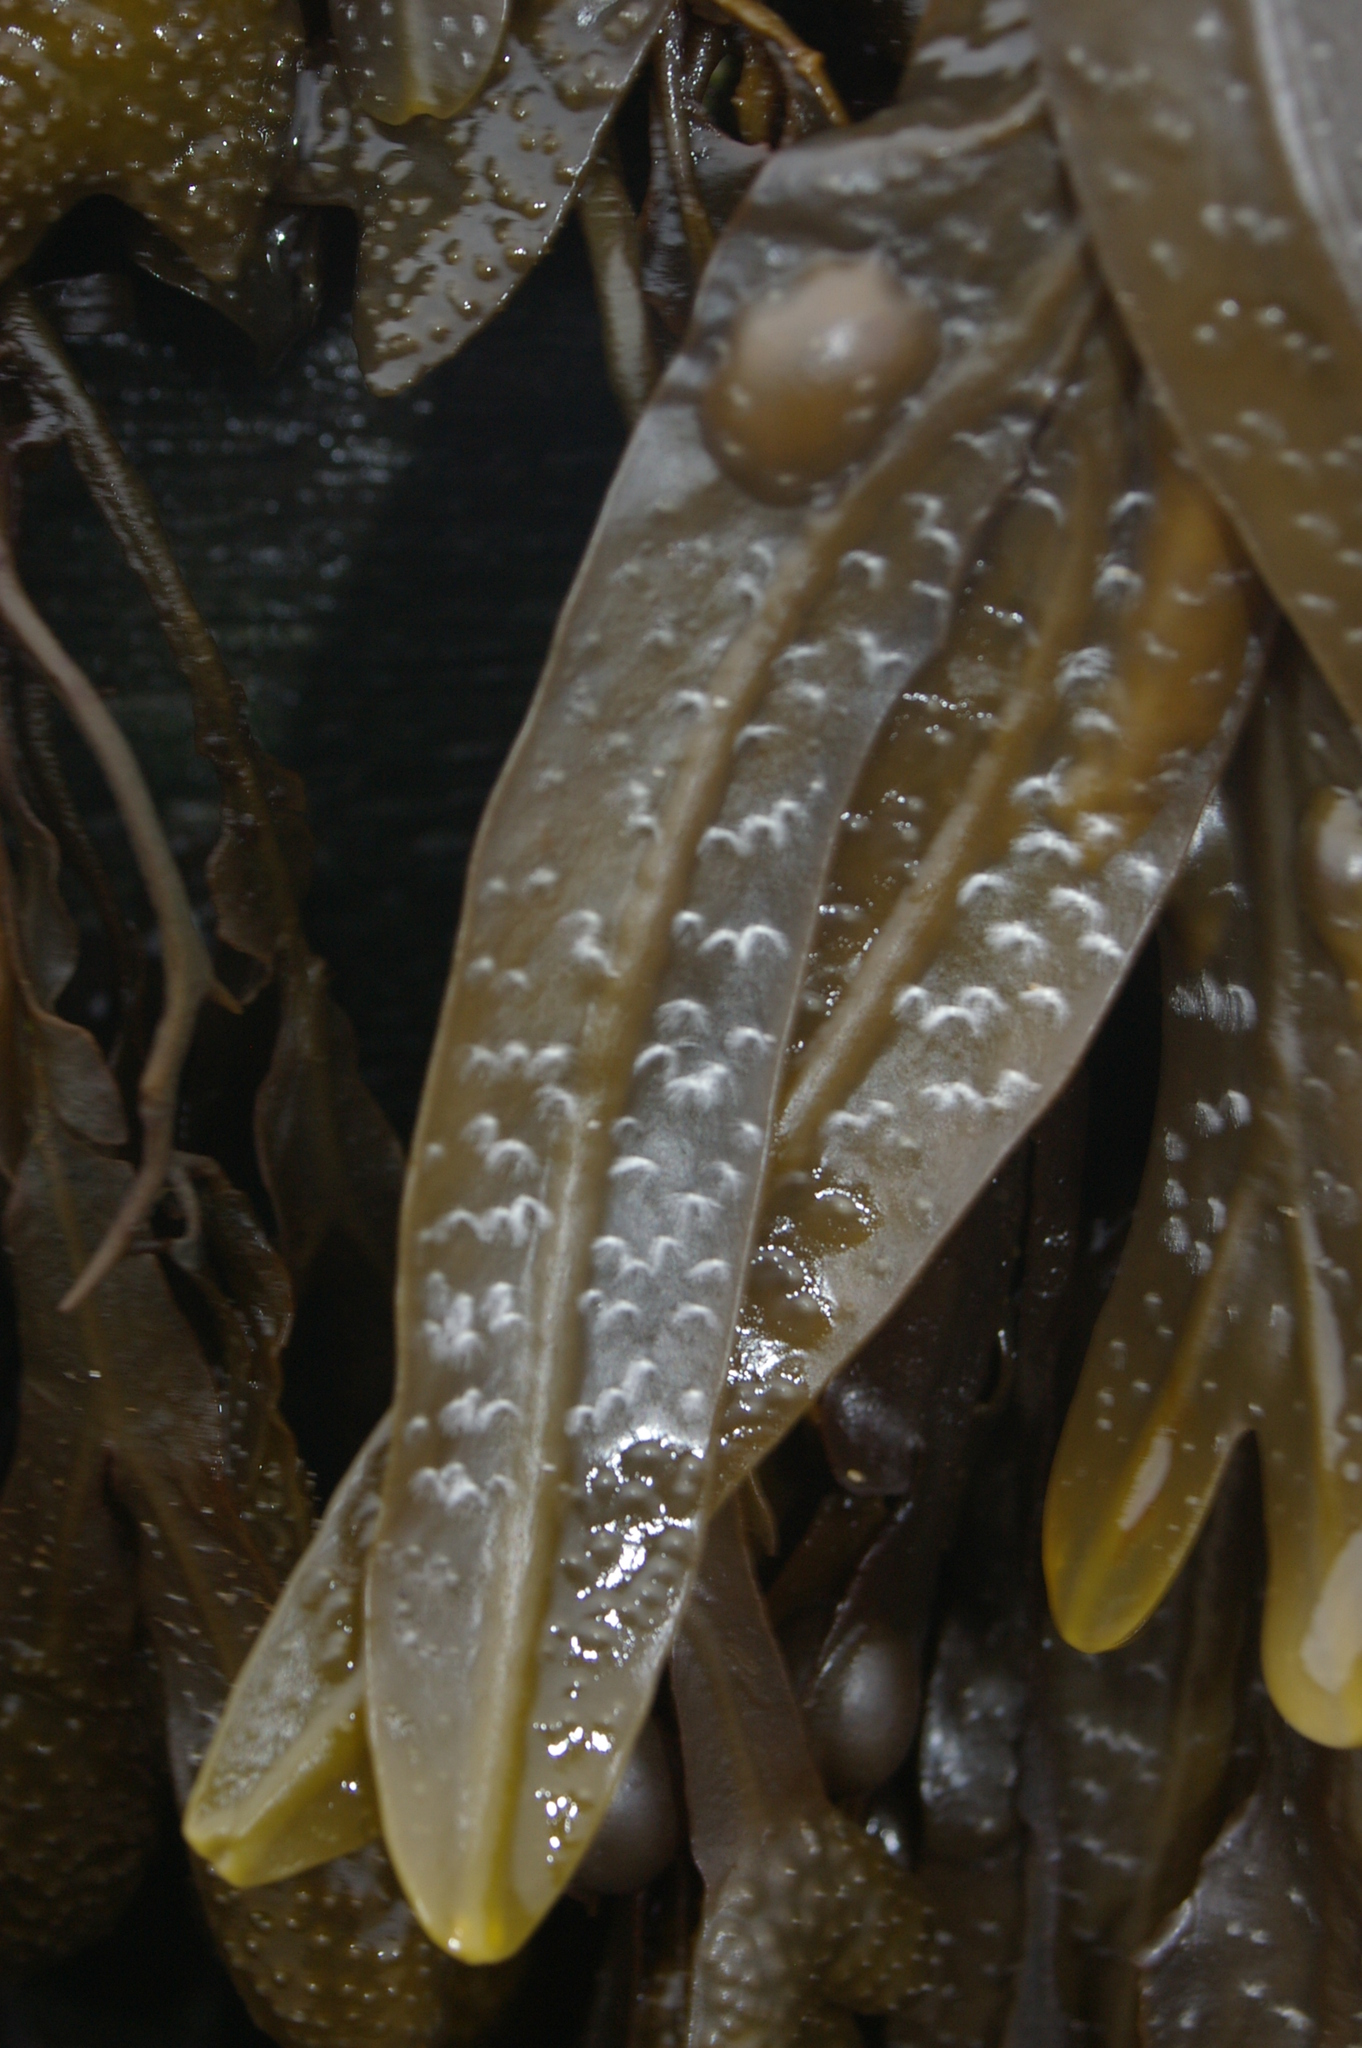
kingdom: Chromista
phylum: Ochrophyta
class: Phaeophyceae
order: Fucales
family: Fucaceae
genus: Fucus
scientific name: Fucus vesiculosus
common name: Bladder wrack
